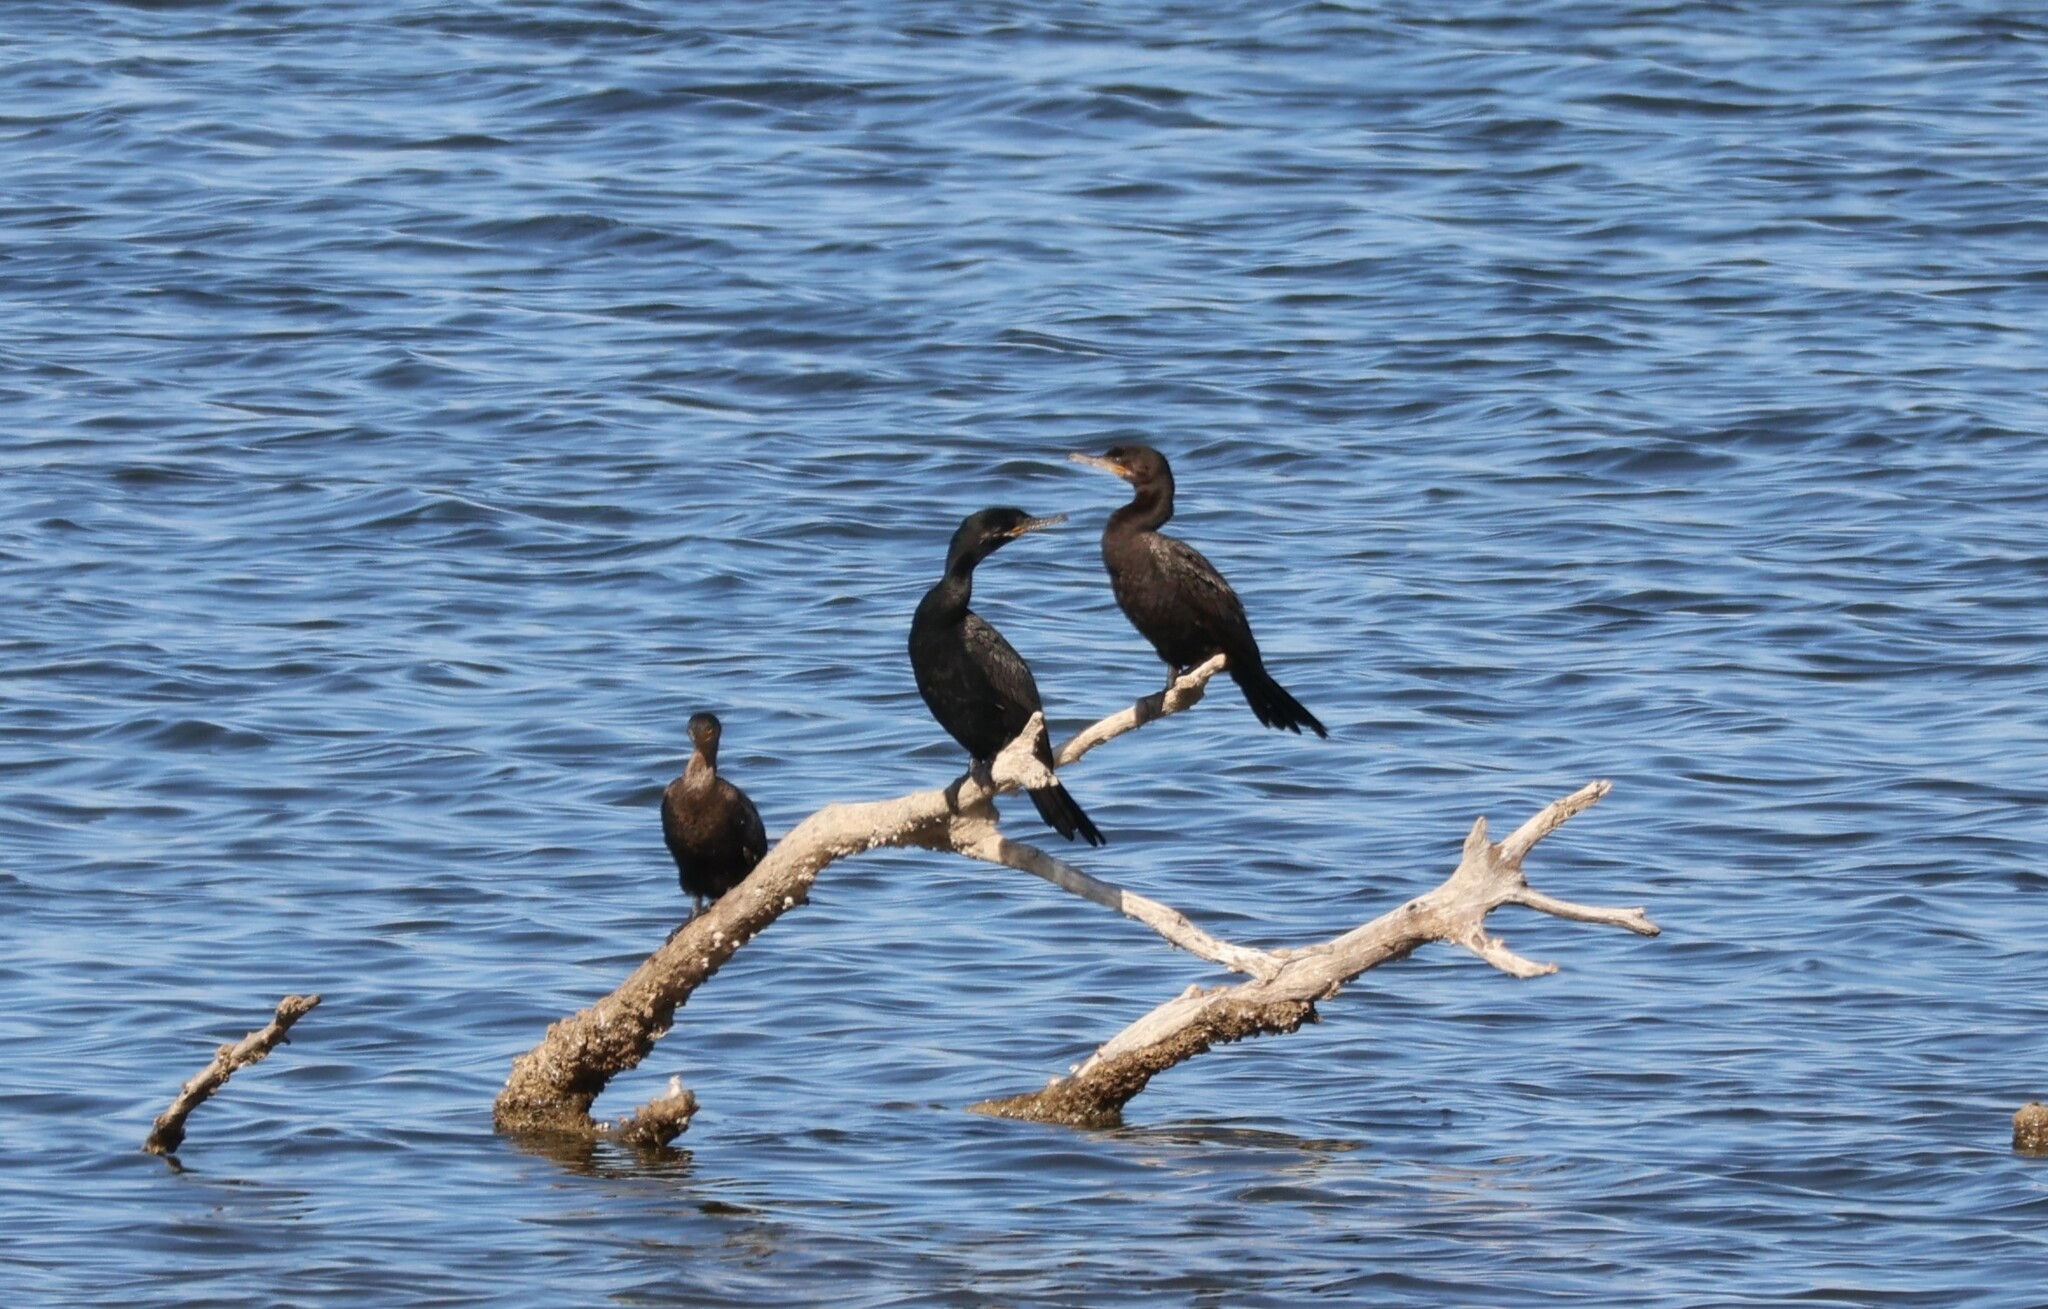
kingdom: Animalia
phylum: Chordata
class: Aves
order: Suliformes
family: Phalacrocoracidae
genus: Phalacrocorax
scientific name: Phalacrocorax brasilianus
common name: Neotropic cormorant
